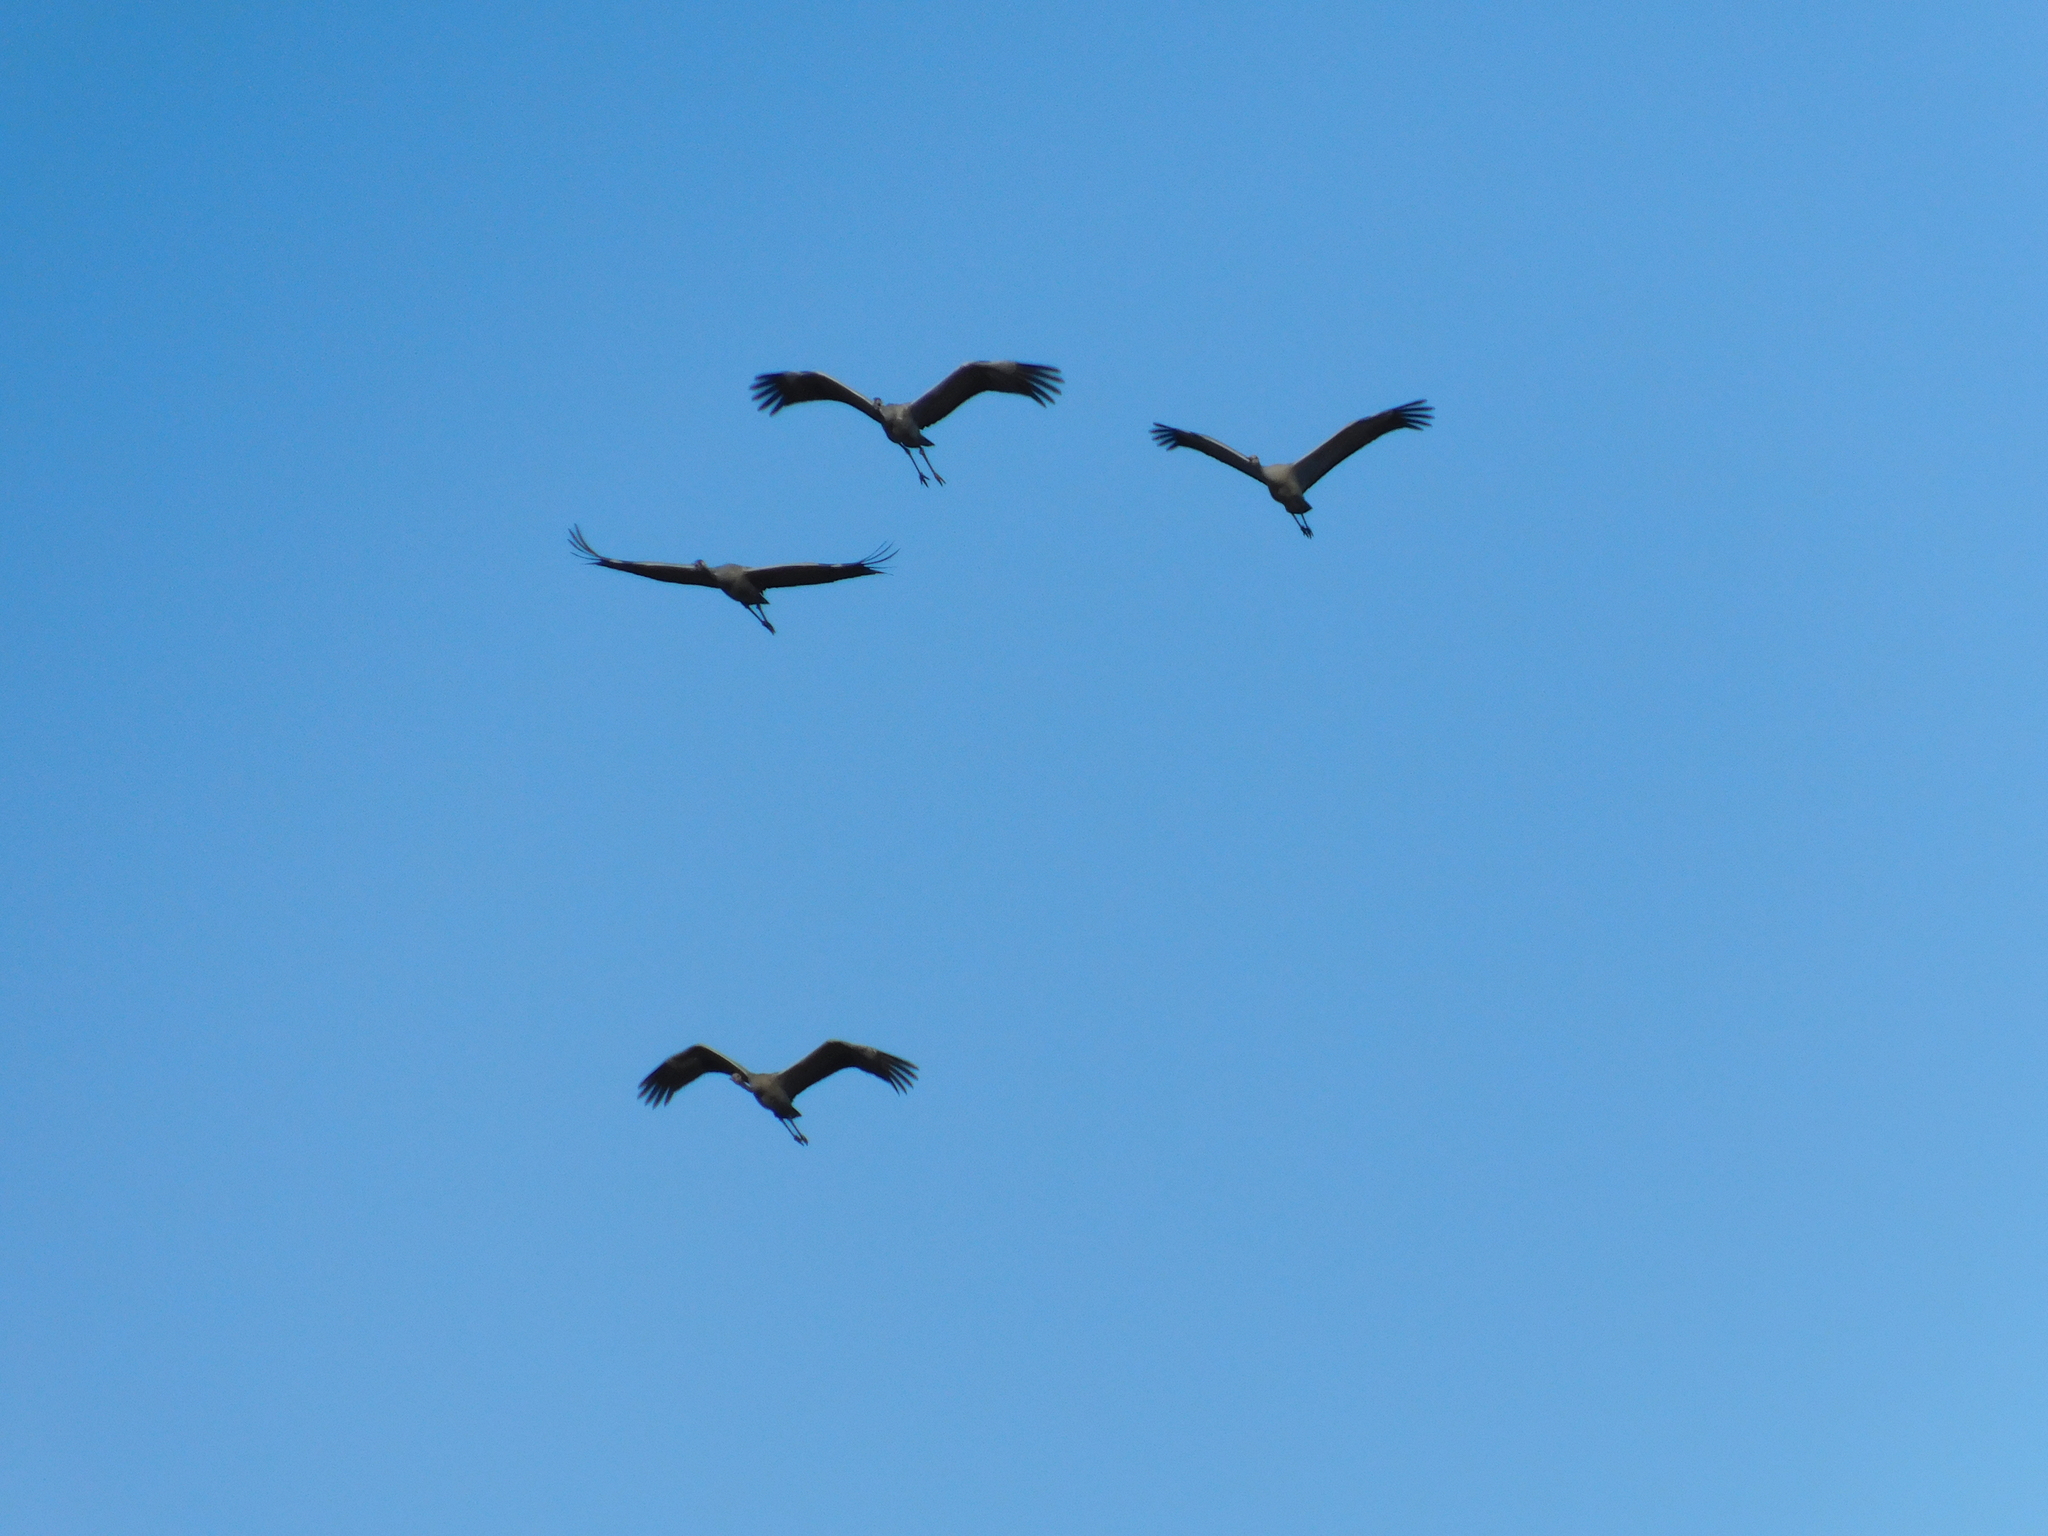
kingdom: Animalia
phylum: Chordata
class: Aves
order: Gruiformes
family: Gruidae
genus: Grus
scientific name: Grus grus
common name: Common crane
